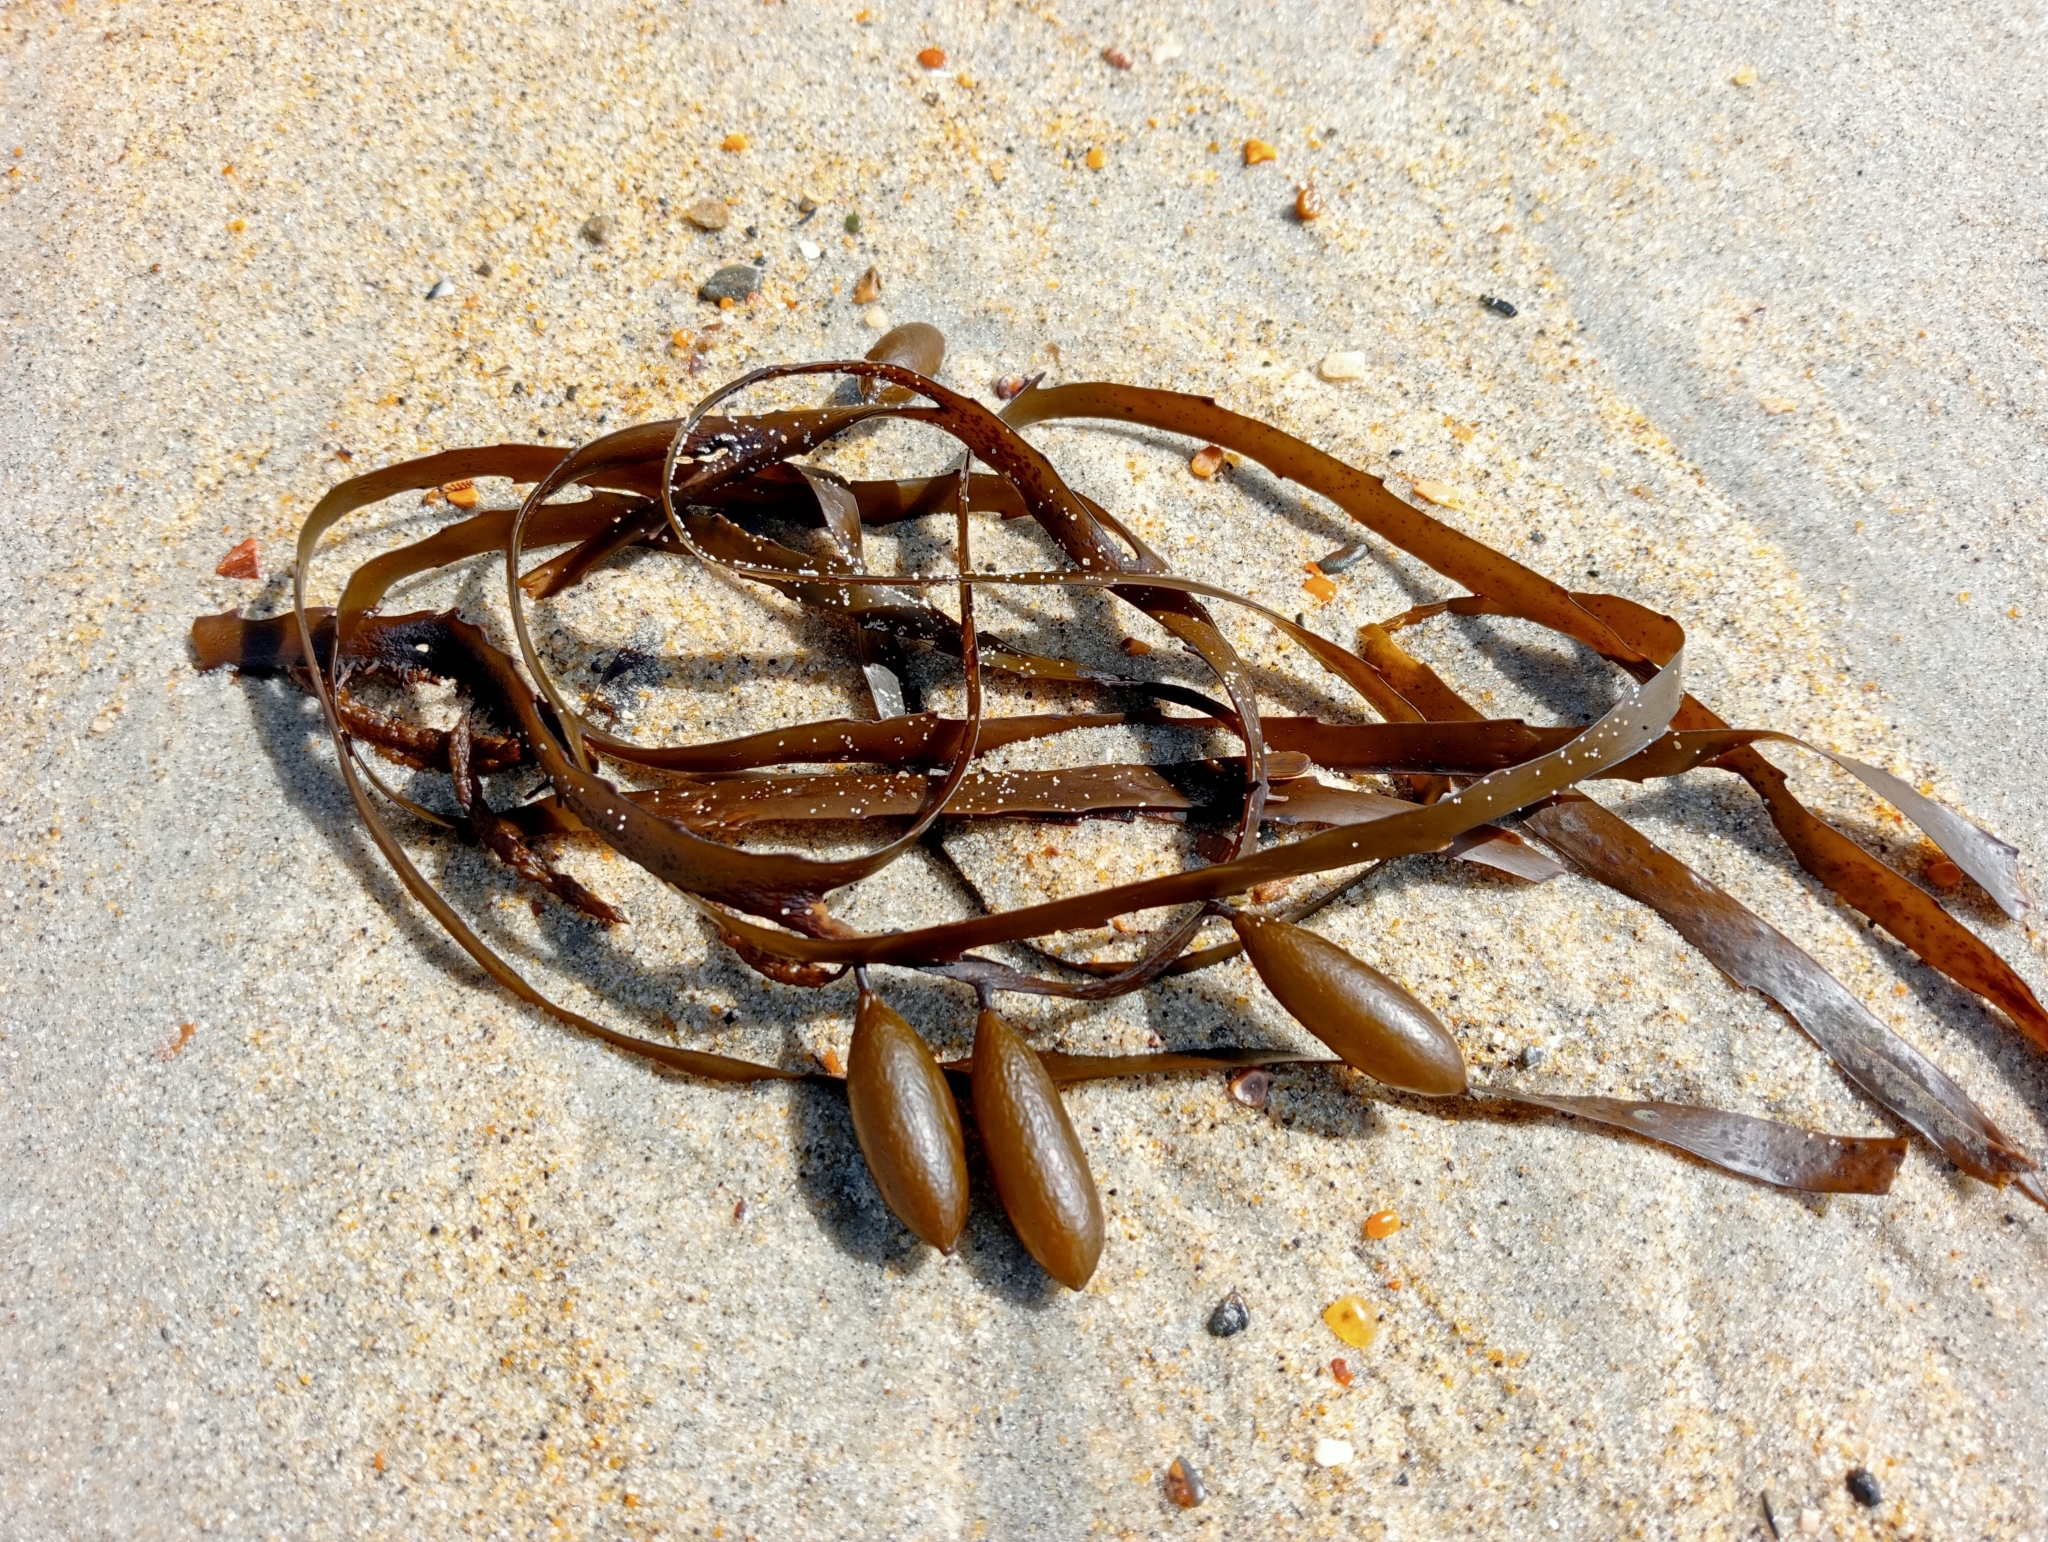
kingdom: Chromista
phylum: Ochrophyta
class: Phaeophyceae
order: Fucales
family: Seirococcaceae
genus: Marginariella
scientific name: Marginariella boryana
